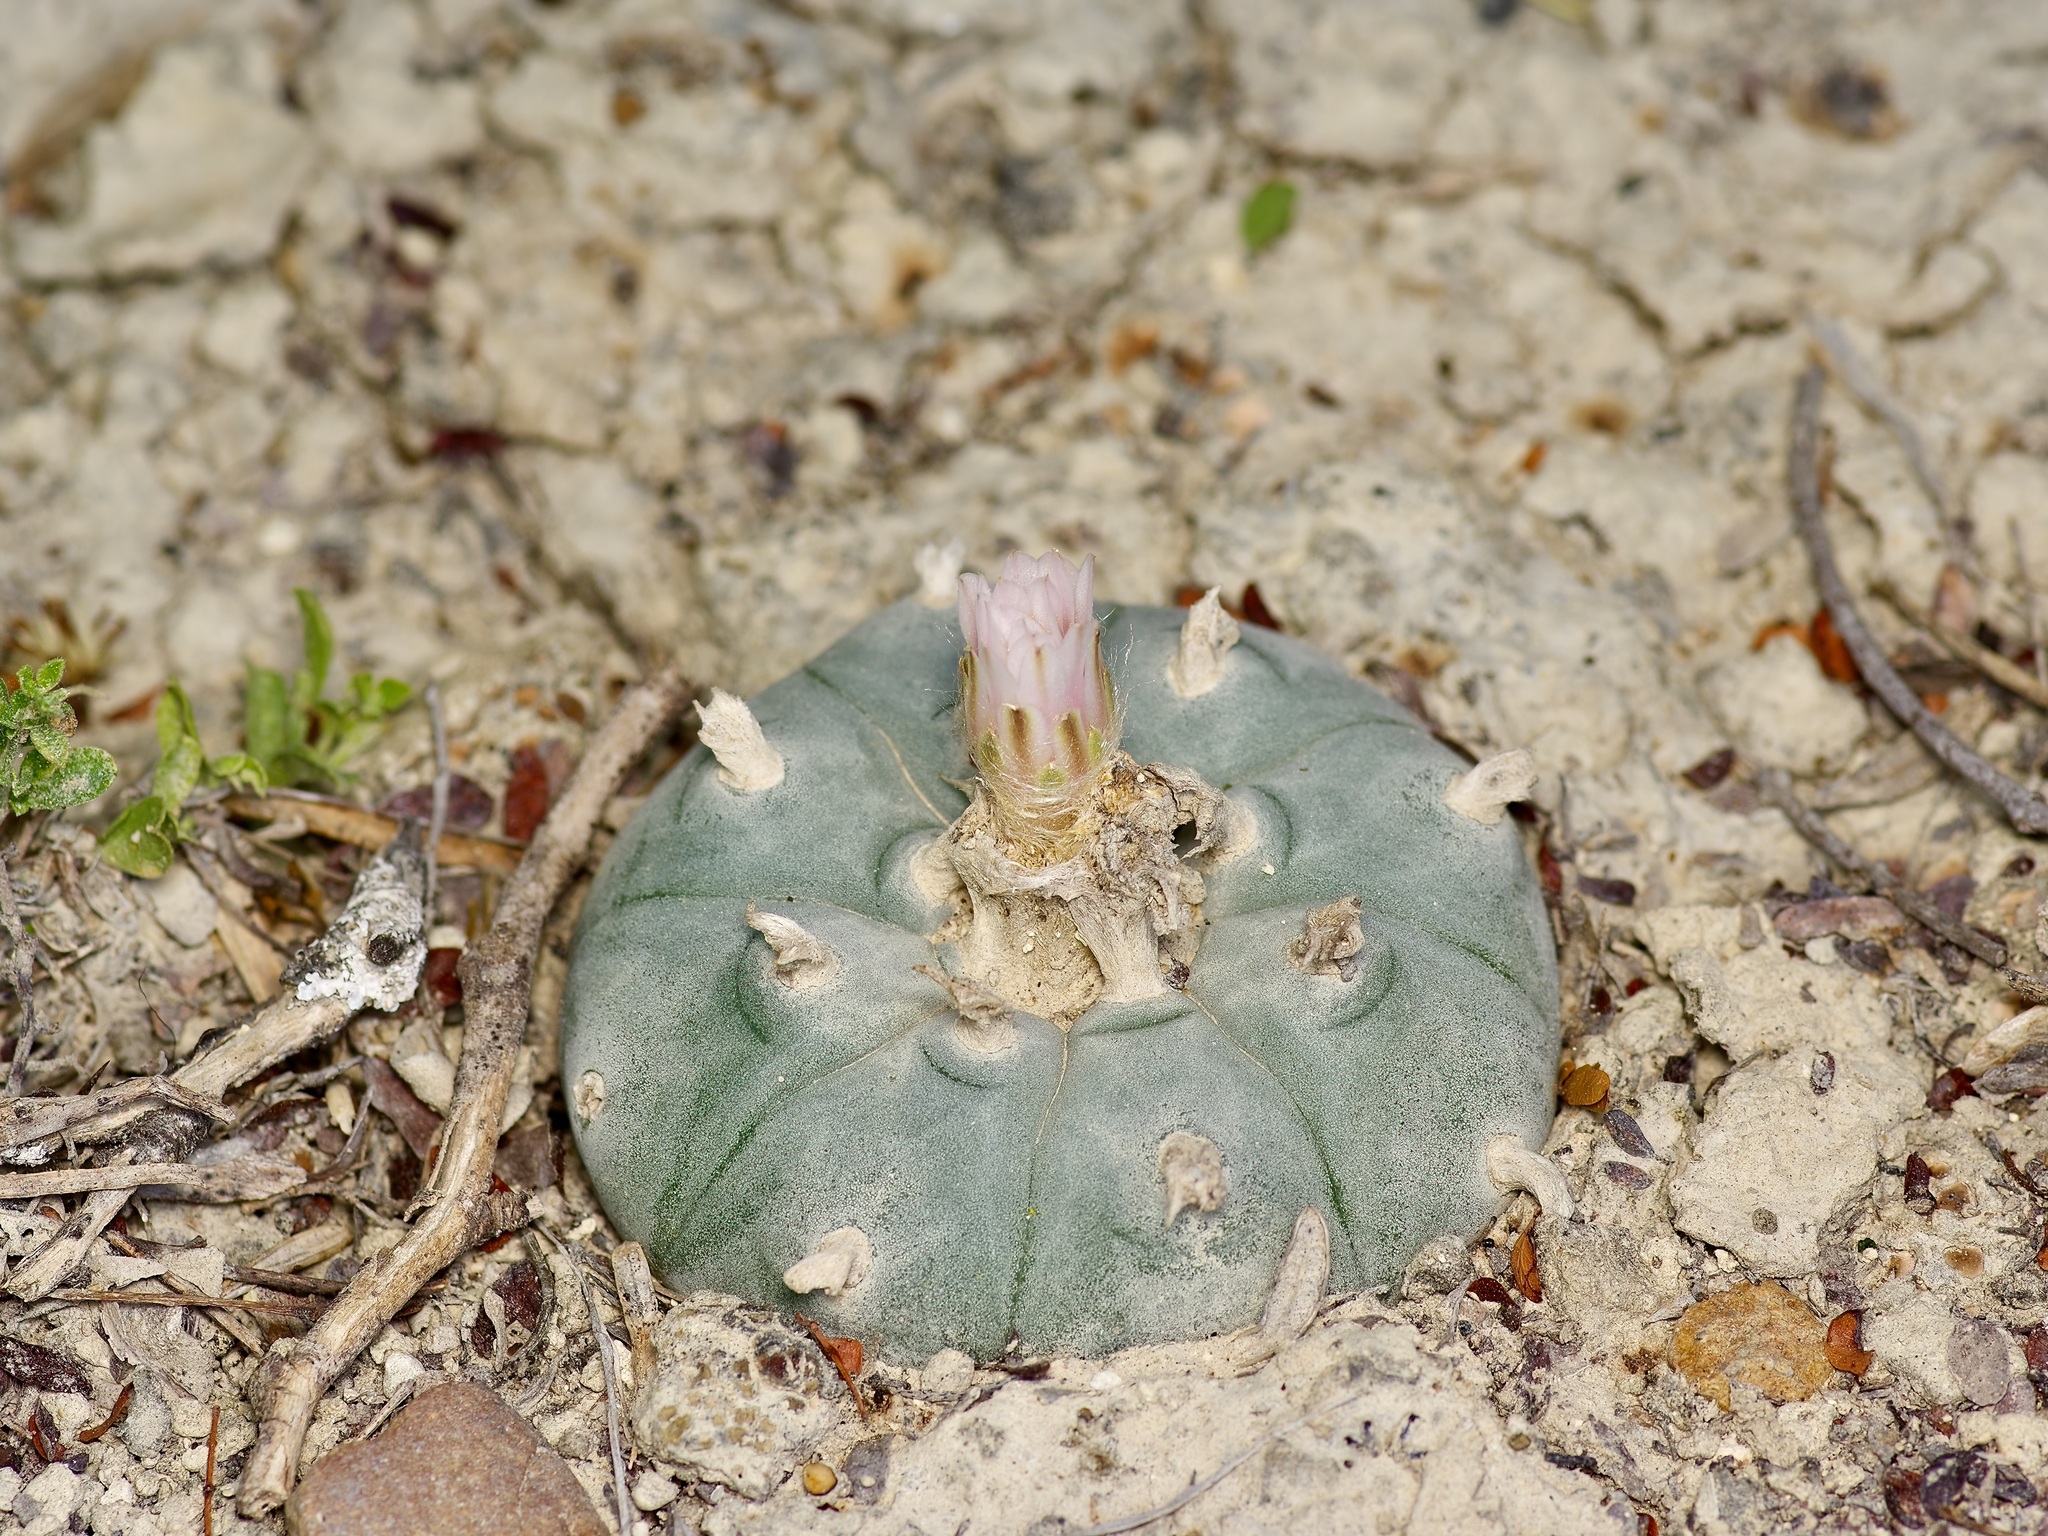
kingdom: Plantae
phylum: Tracheophyta
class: Magnoliopsida
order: Caryophyllales
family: Cactaceae
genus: Lophophora
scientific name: Lophophora williamsii
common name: Indian-dope
